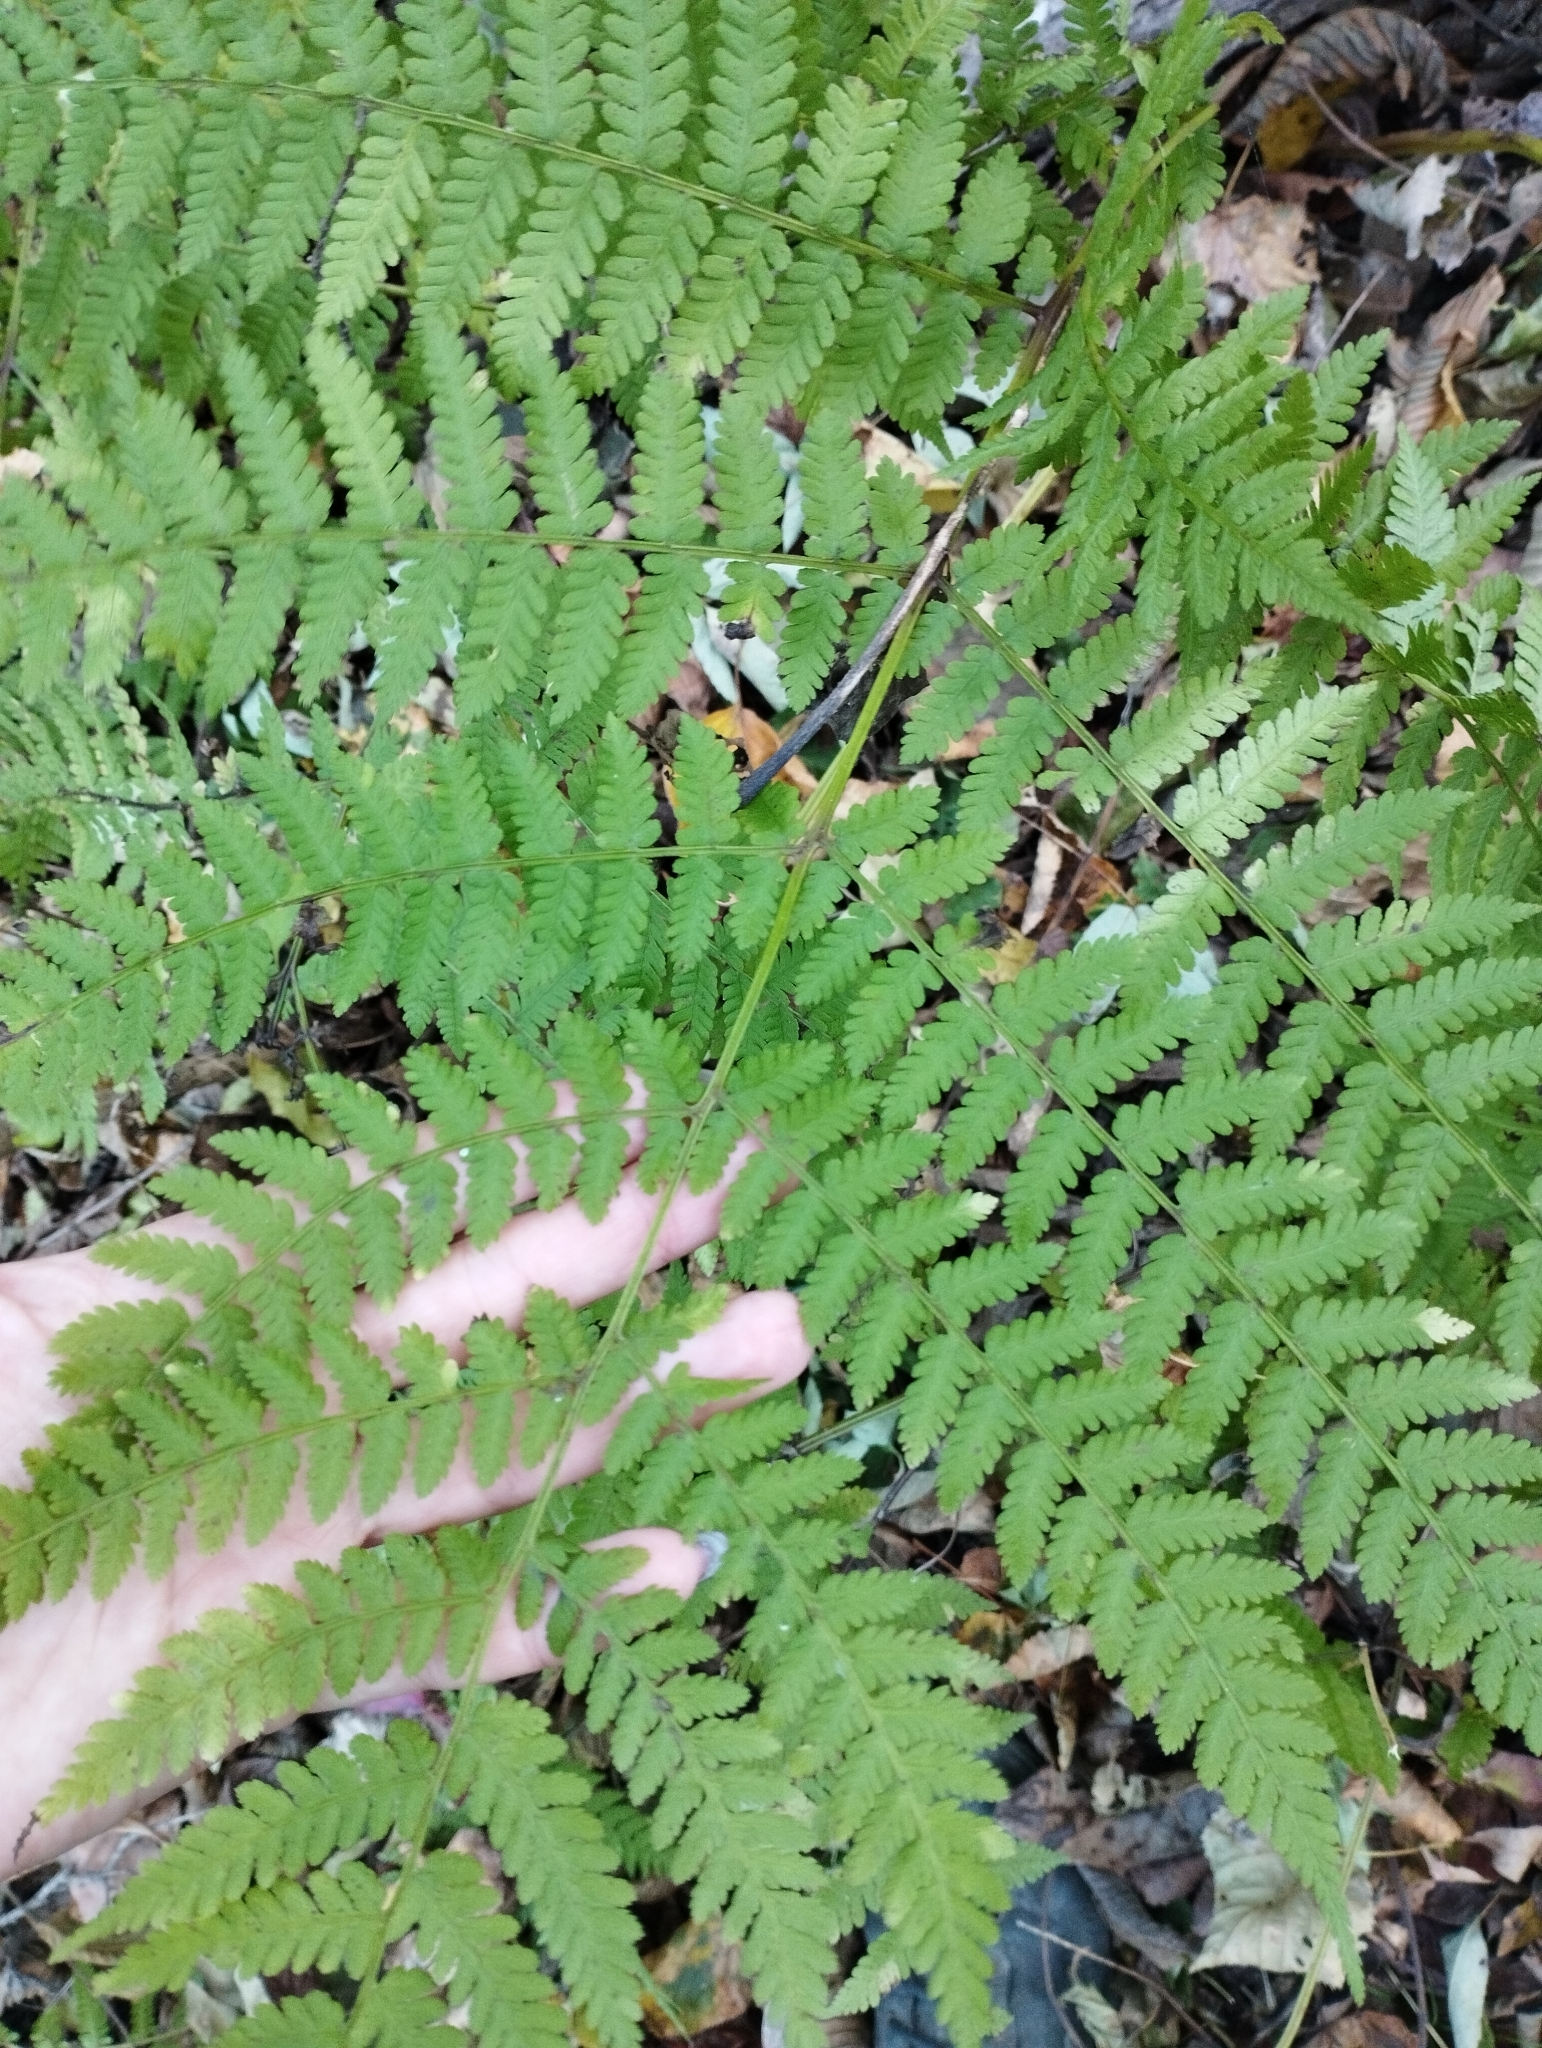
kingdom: Plantae
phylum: Tracheophyta
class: Polypodiopsida
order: Polypodiales
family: Athyriaceae
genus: Cornopteris
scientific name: Cornopteris crenulatoserrulata
